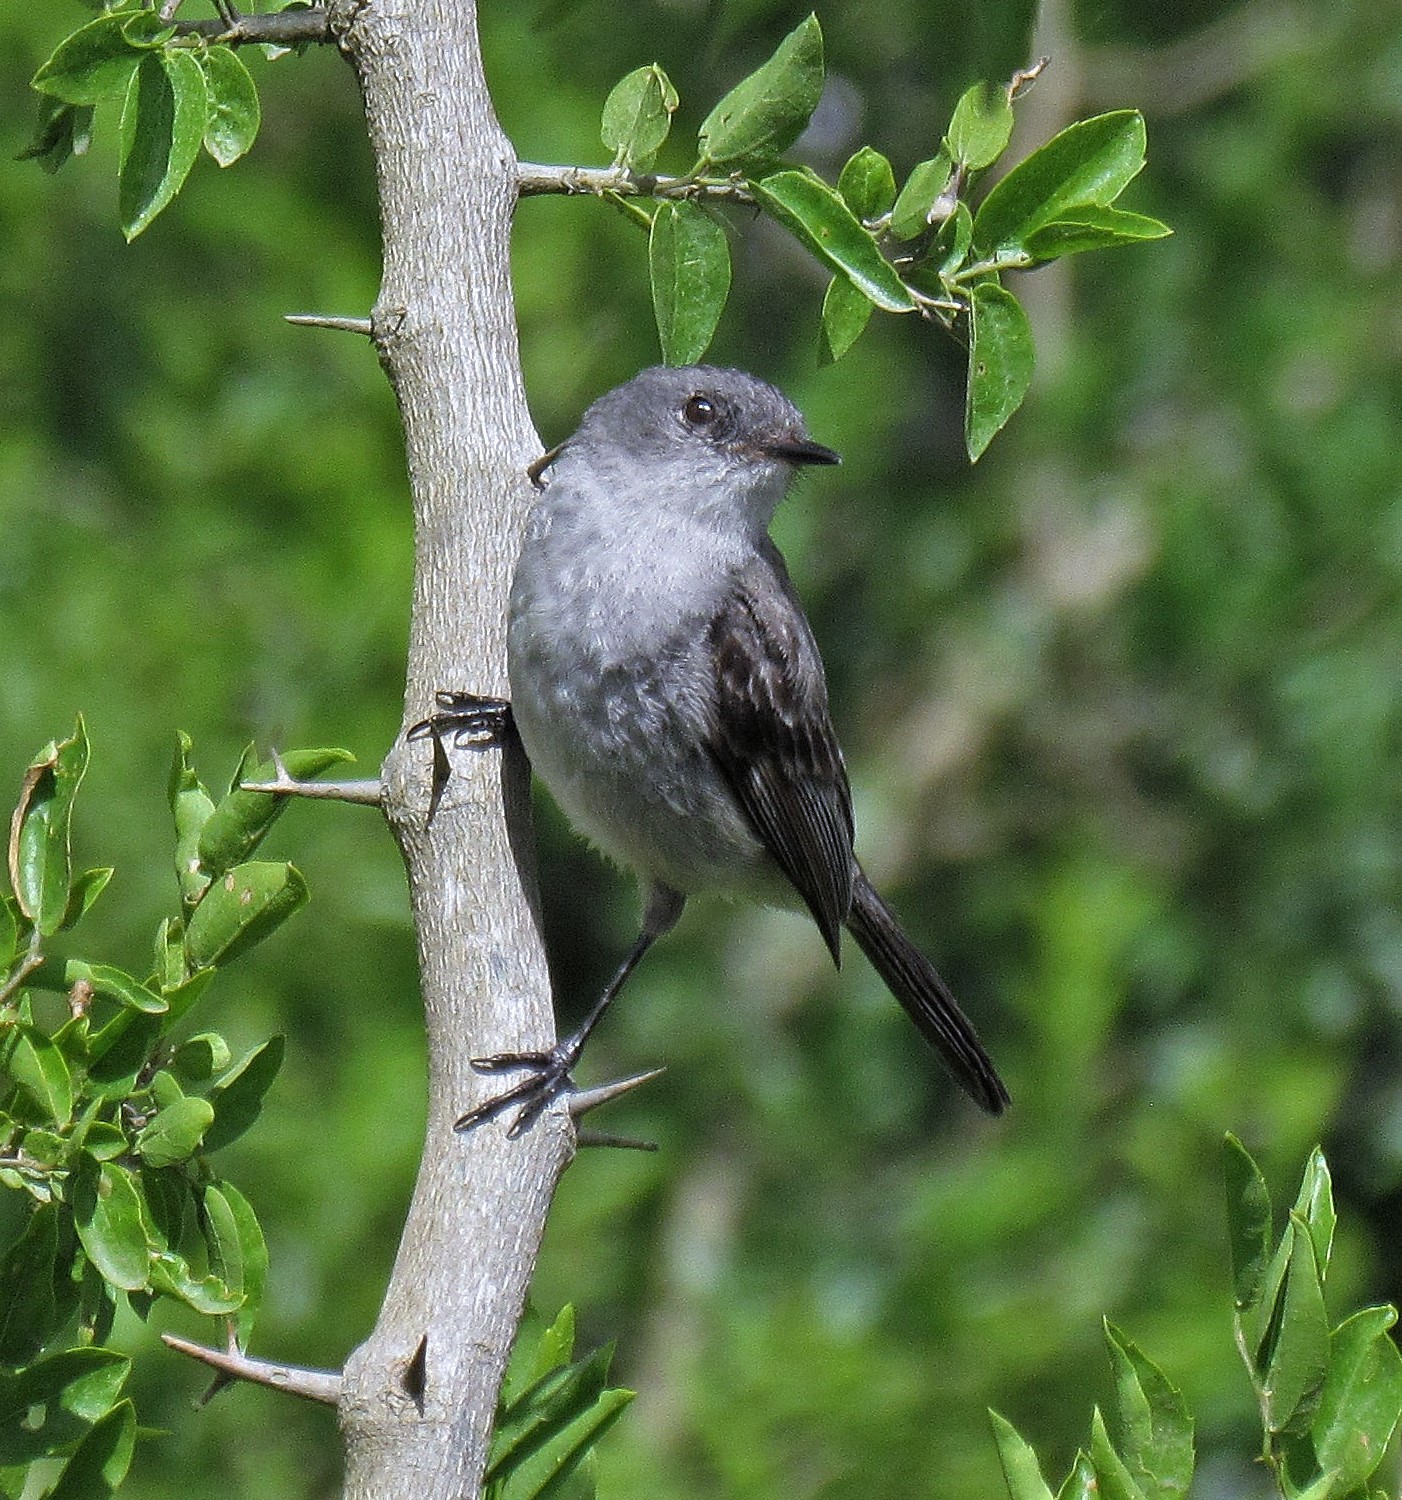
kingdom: Animalia
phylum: Chordata
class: Aves
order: Passeriformes
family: Tyrannidae
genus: Serpophaga
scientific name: Serpophaga nigricans
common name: Sooty tyrannulet
